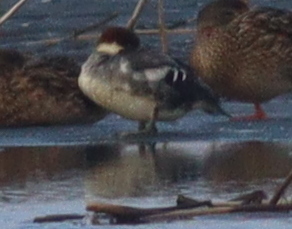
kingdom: Animalia
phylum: Chordata
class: Aves
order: Anseriformes
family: Anatidae
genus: Mergellus
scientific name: Mergellus albellus
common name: Smew
